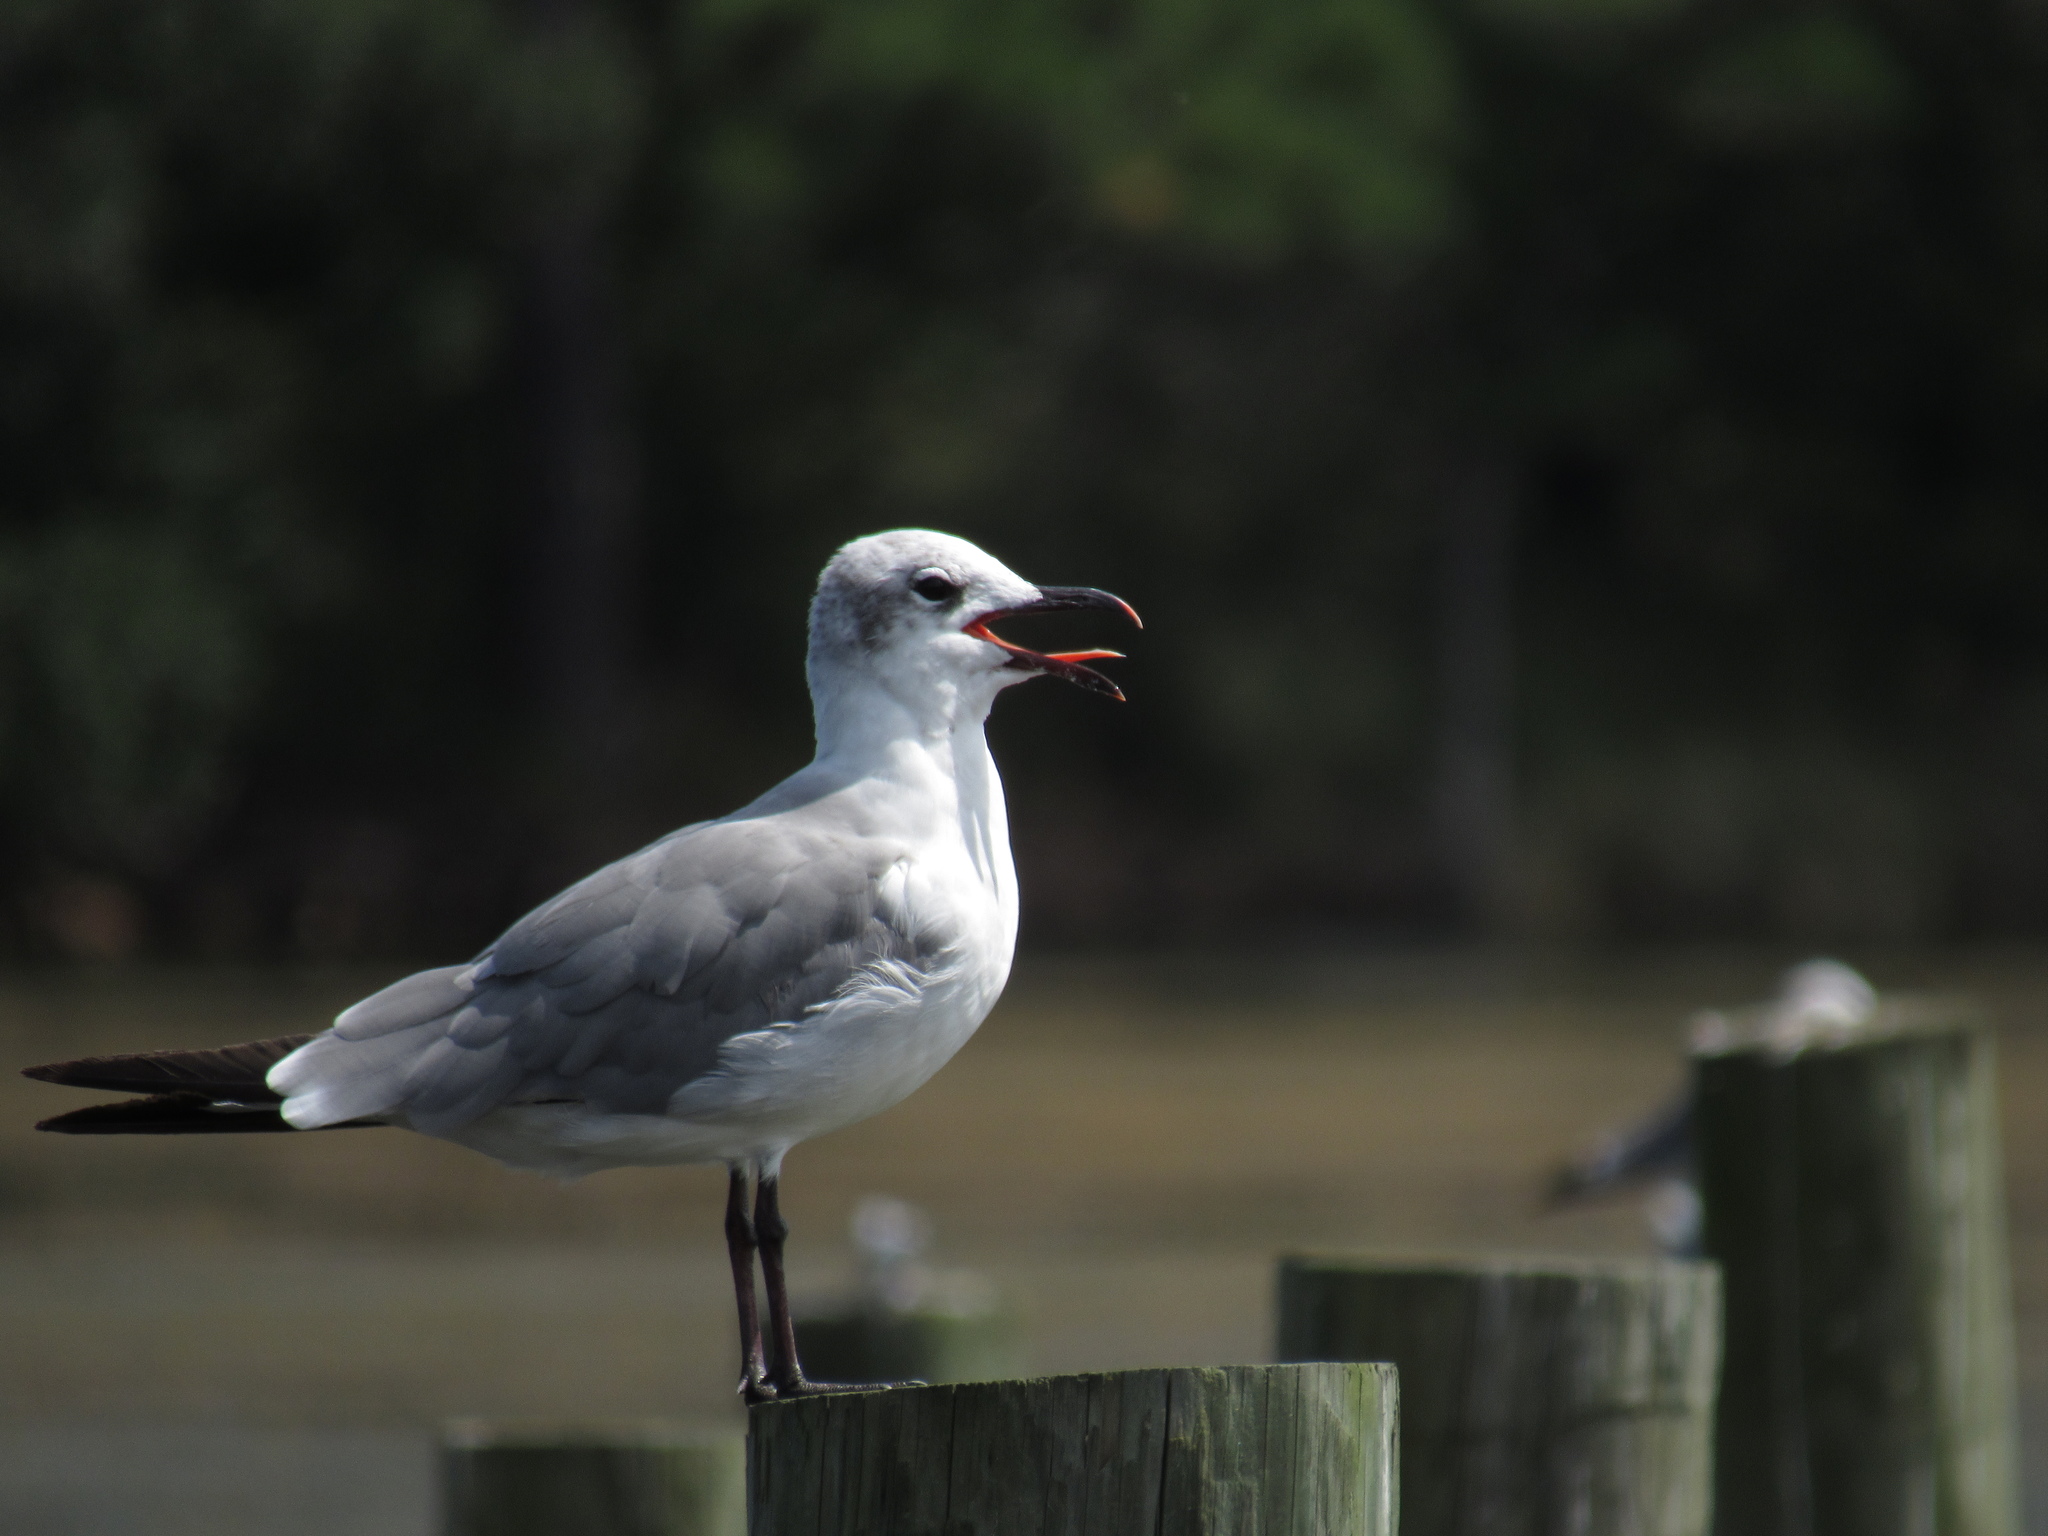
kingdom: Animalia
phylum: Chordata
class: Aves
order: Charadriiformes
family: Laridae
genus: Leucophaeus
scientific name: Leucophaeus atricilla
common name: Laughing gull
